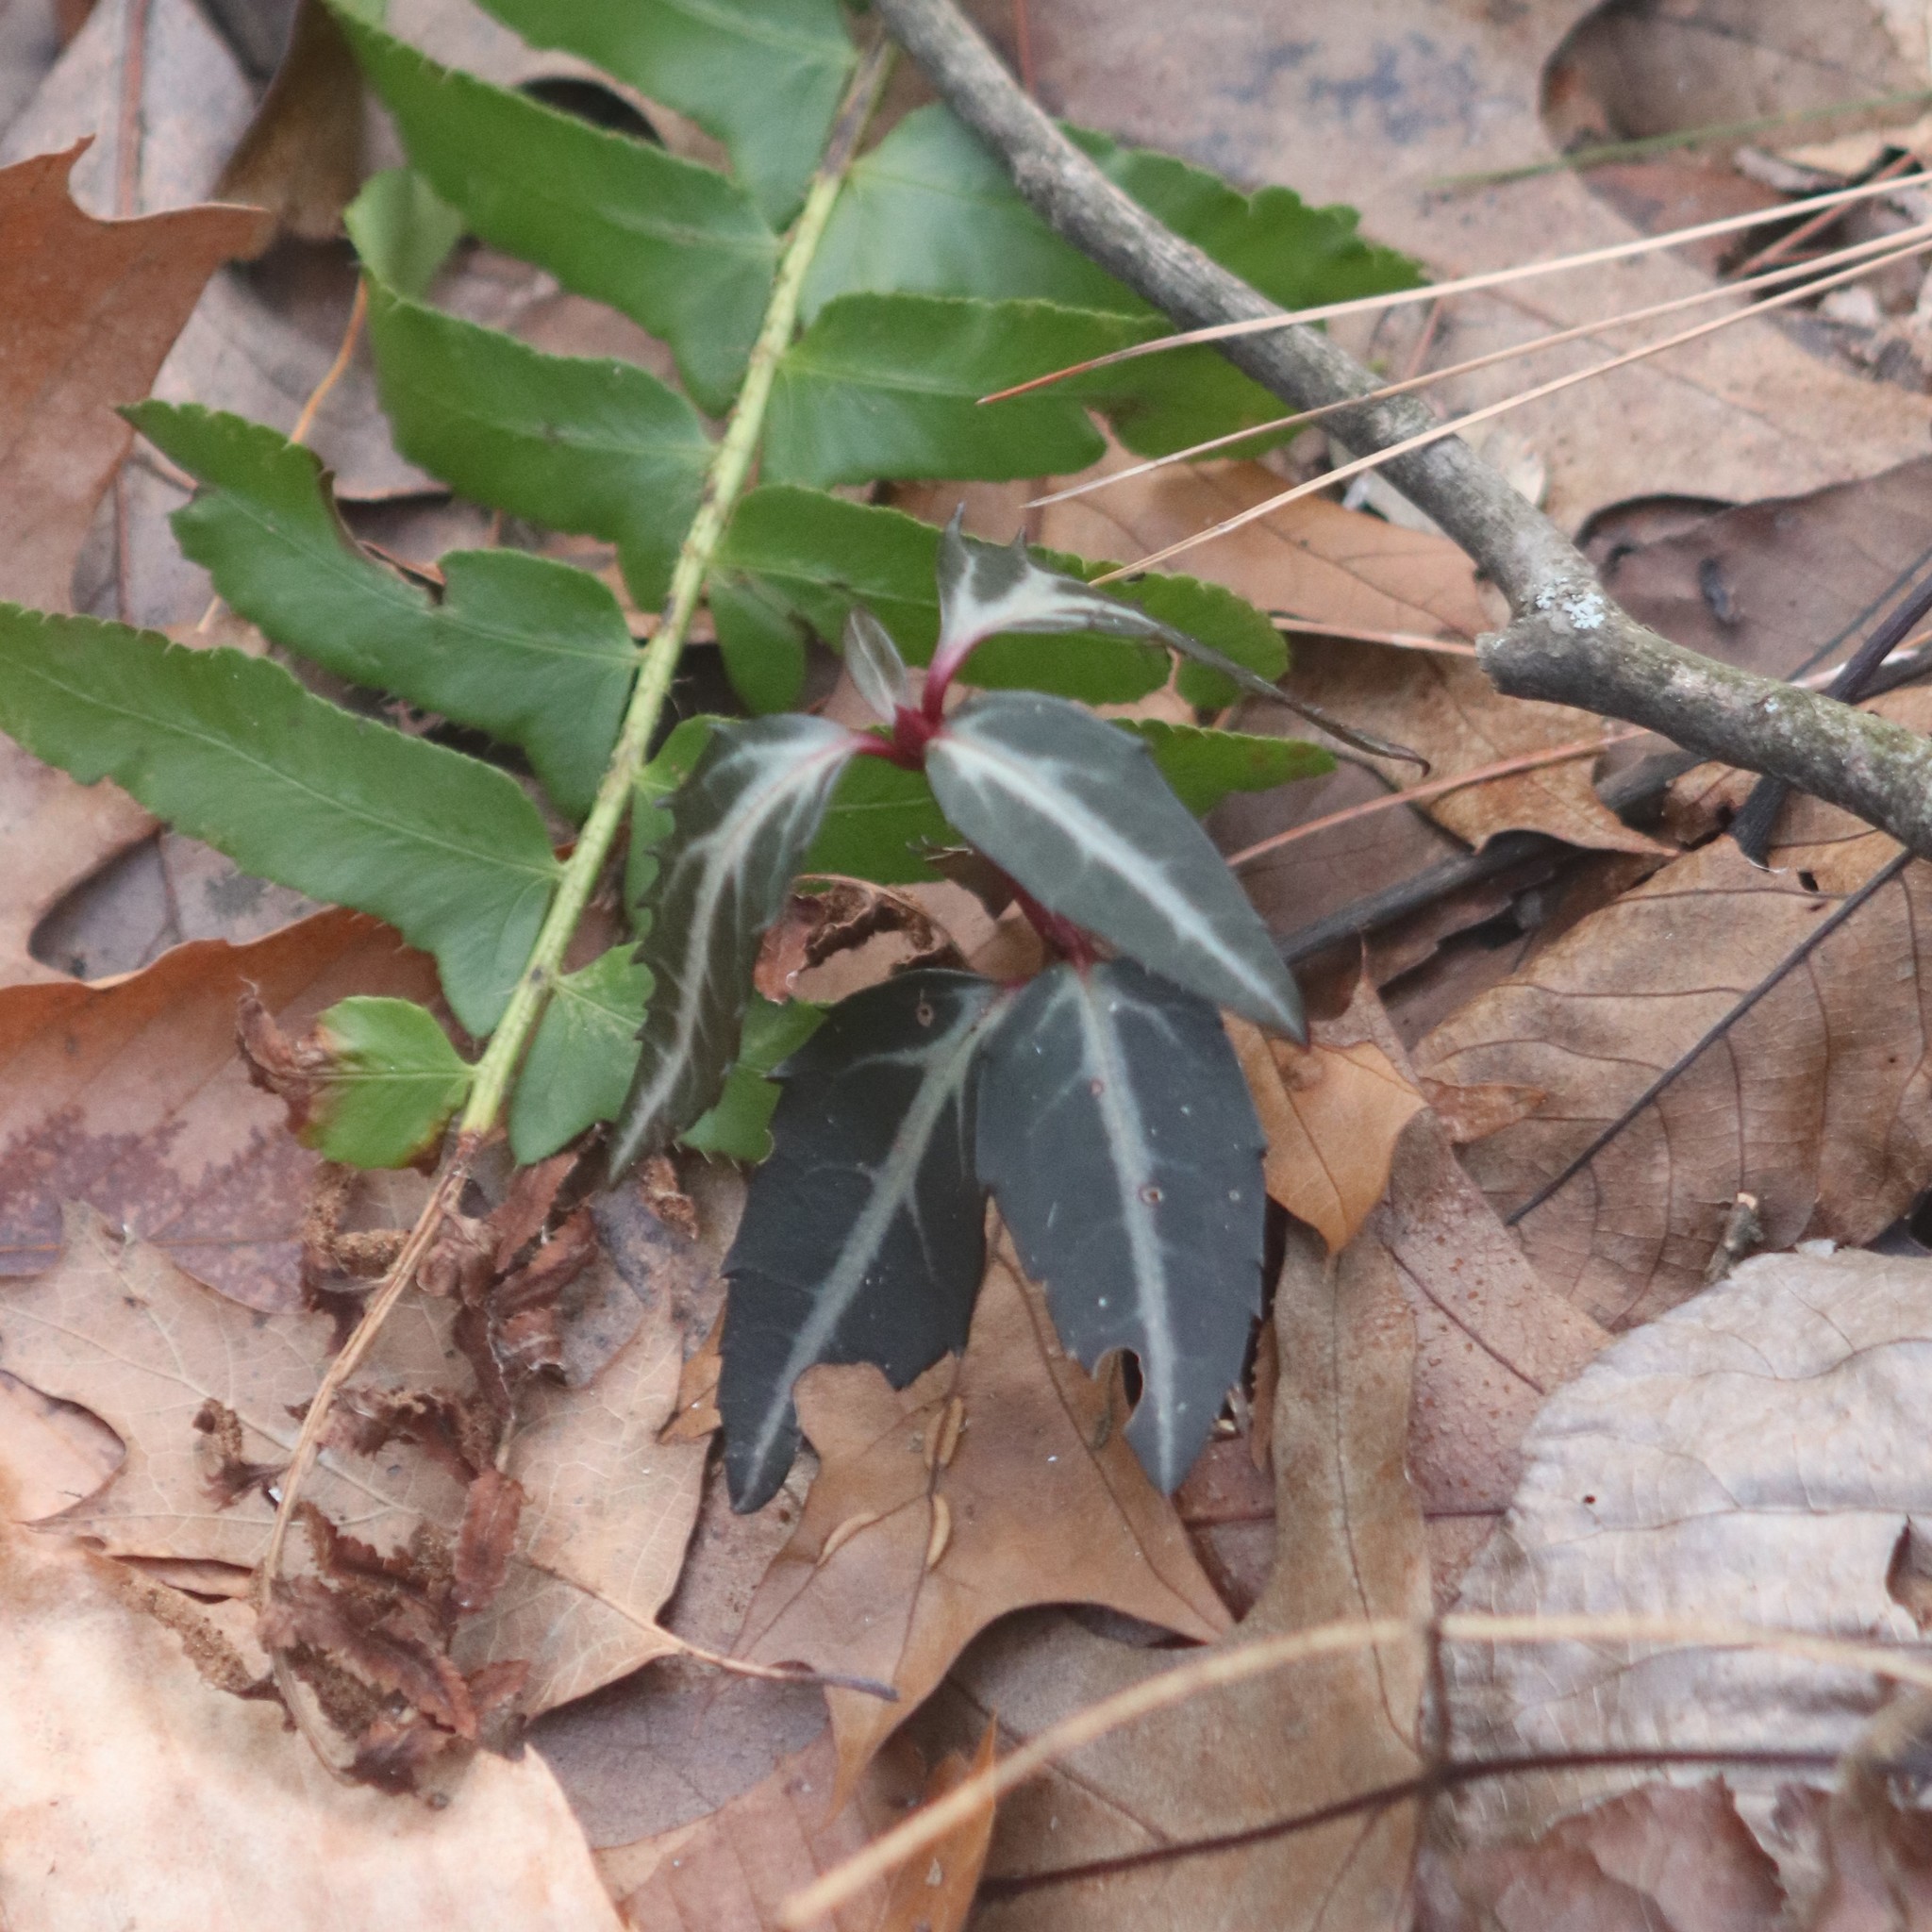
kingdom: Plantae
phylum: Tracheophyta
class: Magnoliopsida
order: Ericales
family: Ericaceae
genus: Chimaphila
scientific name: Chimaphila maculata
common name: Spotted pipsissewa
